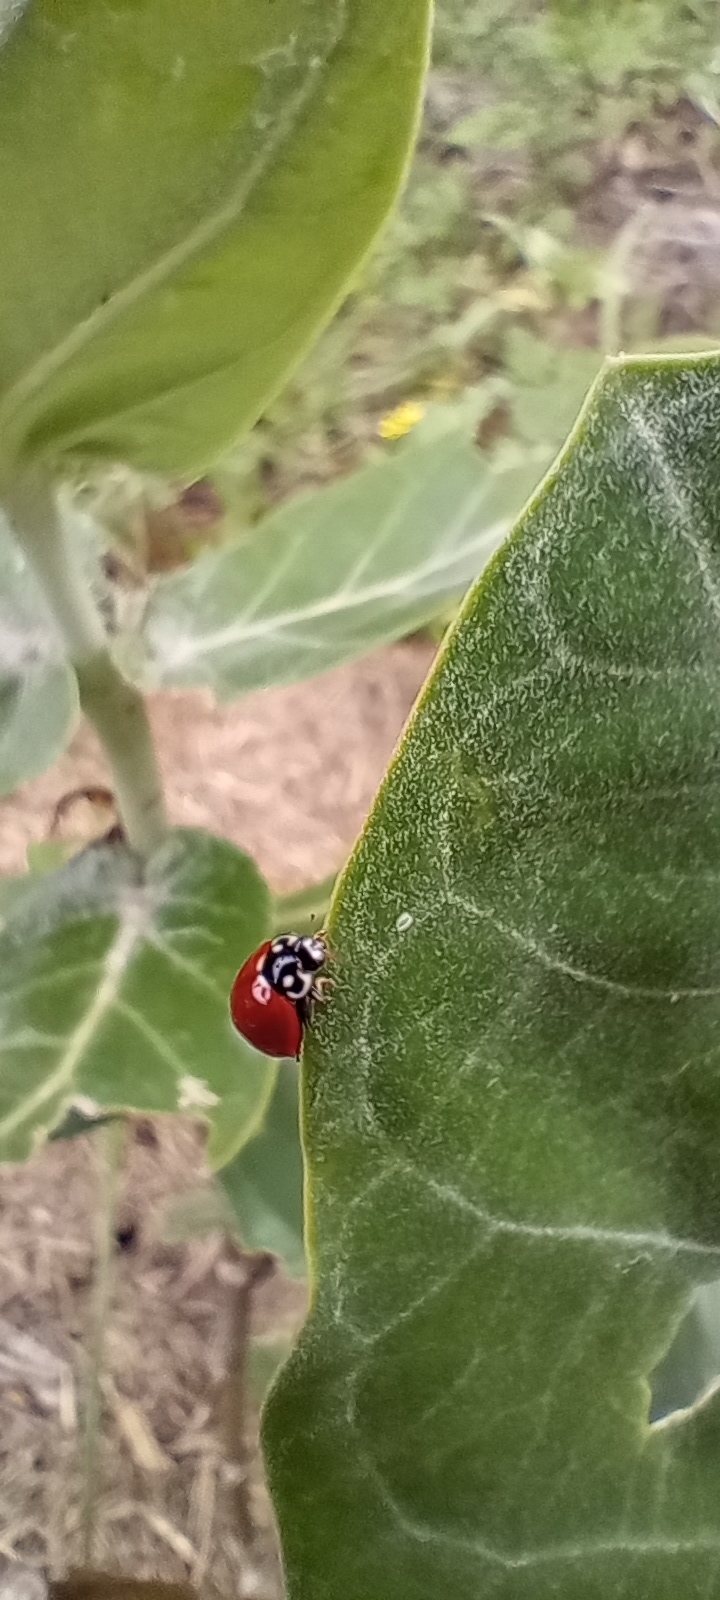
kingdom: Animalia
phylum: Arthropoda
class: Insecta
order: Coleoptera
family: Coccinellidae
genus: Cycloneda
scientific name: Cycloneda sanguinea
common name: Ladybird beetle
